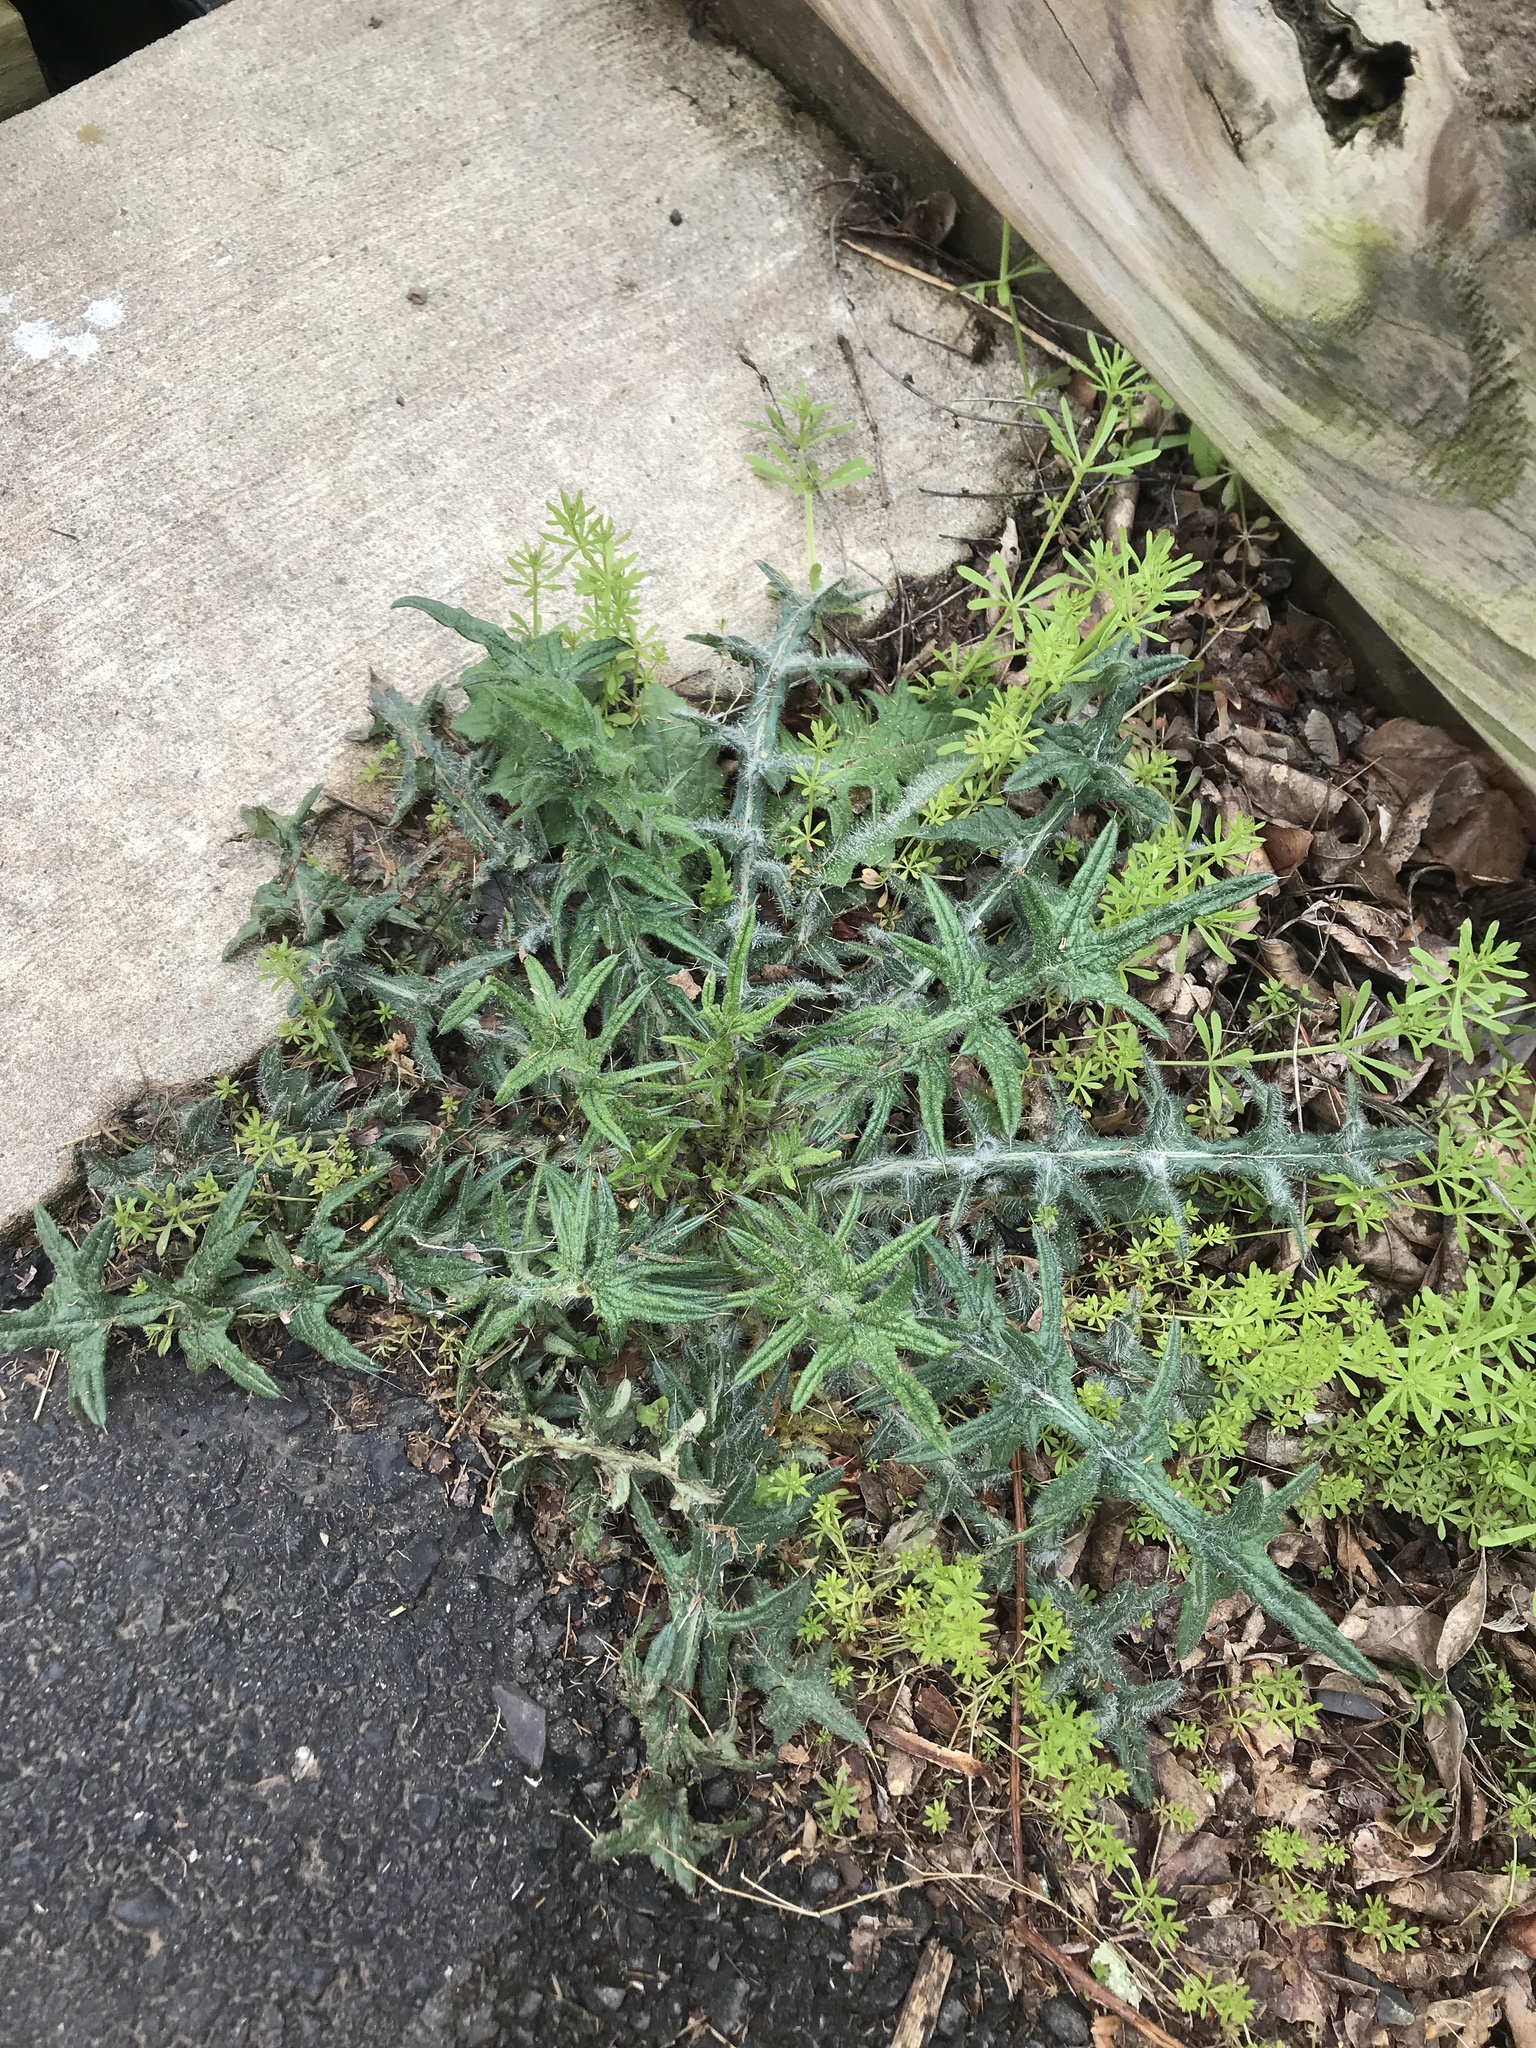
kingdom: Plantae
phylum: Tracheophyta
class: Magnoliopsida
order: Asterales
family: Asteraceae
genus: Cirsium
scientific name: Cirsium vulgare
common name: Bull thistle
